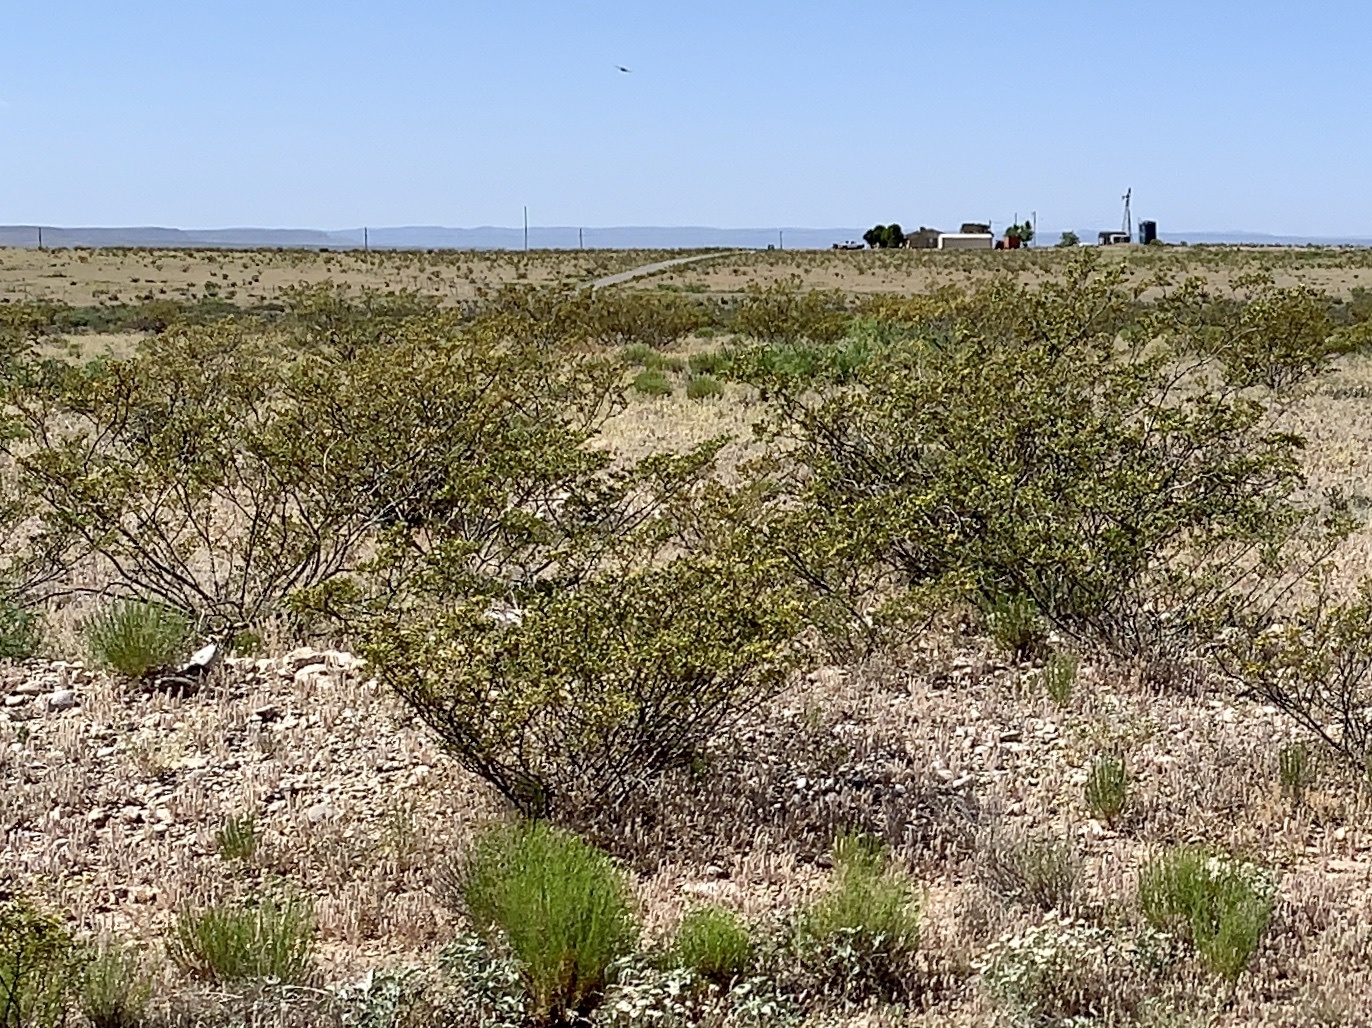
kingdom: Plantae
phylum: Tracheophyta
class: Magnoliopsida
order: Zygophyllales
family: Zygophyllaceae
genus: Larrea
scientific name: Larrea tridentata
